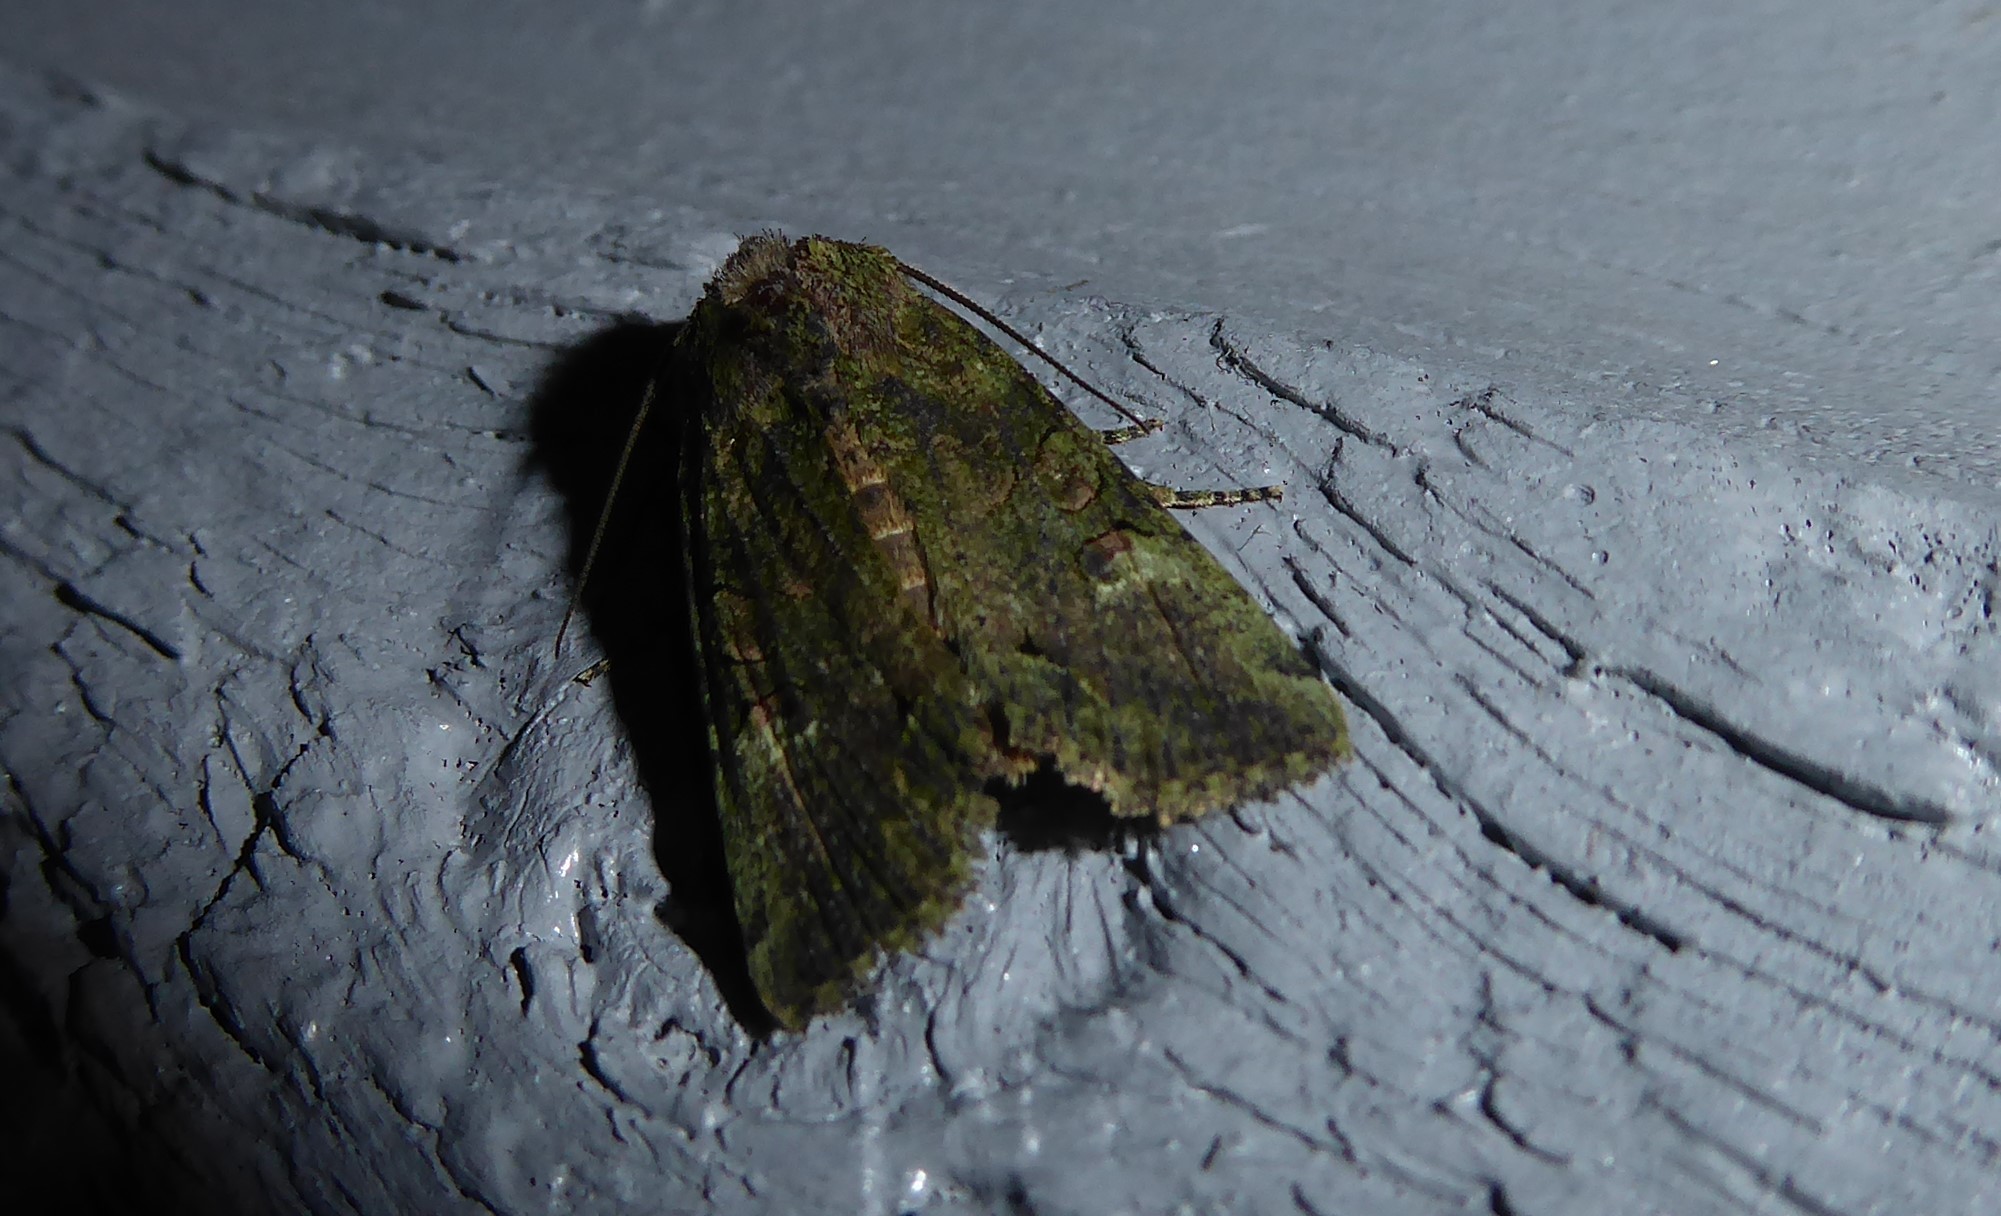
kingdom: Animalia
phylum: Arthropoda
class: Insecta
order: Lepidoptera
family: Noctuidae
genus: Meterana
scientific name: Meterana levis
